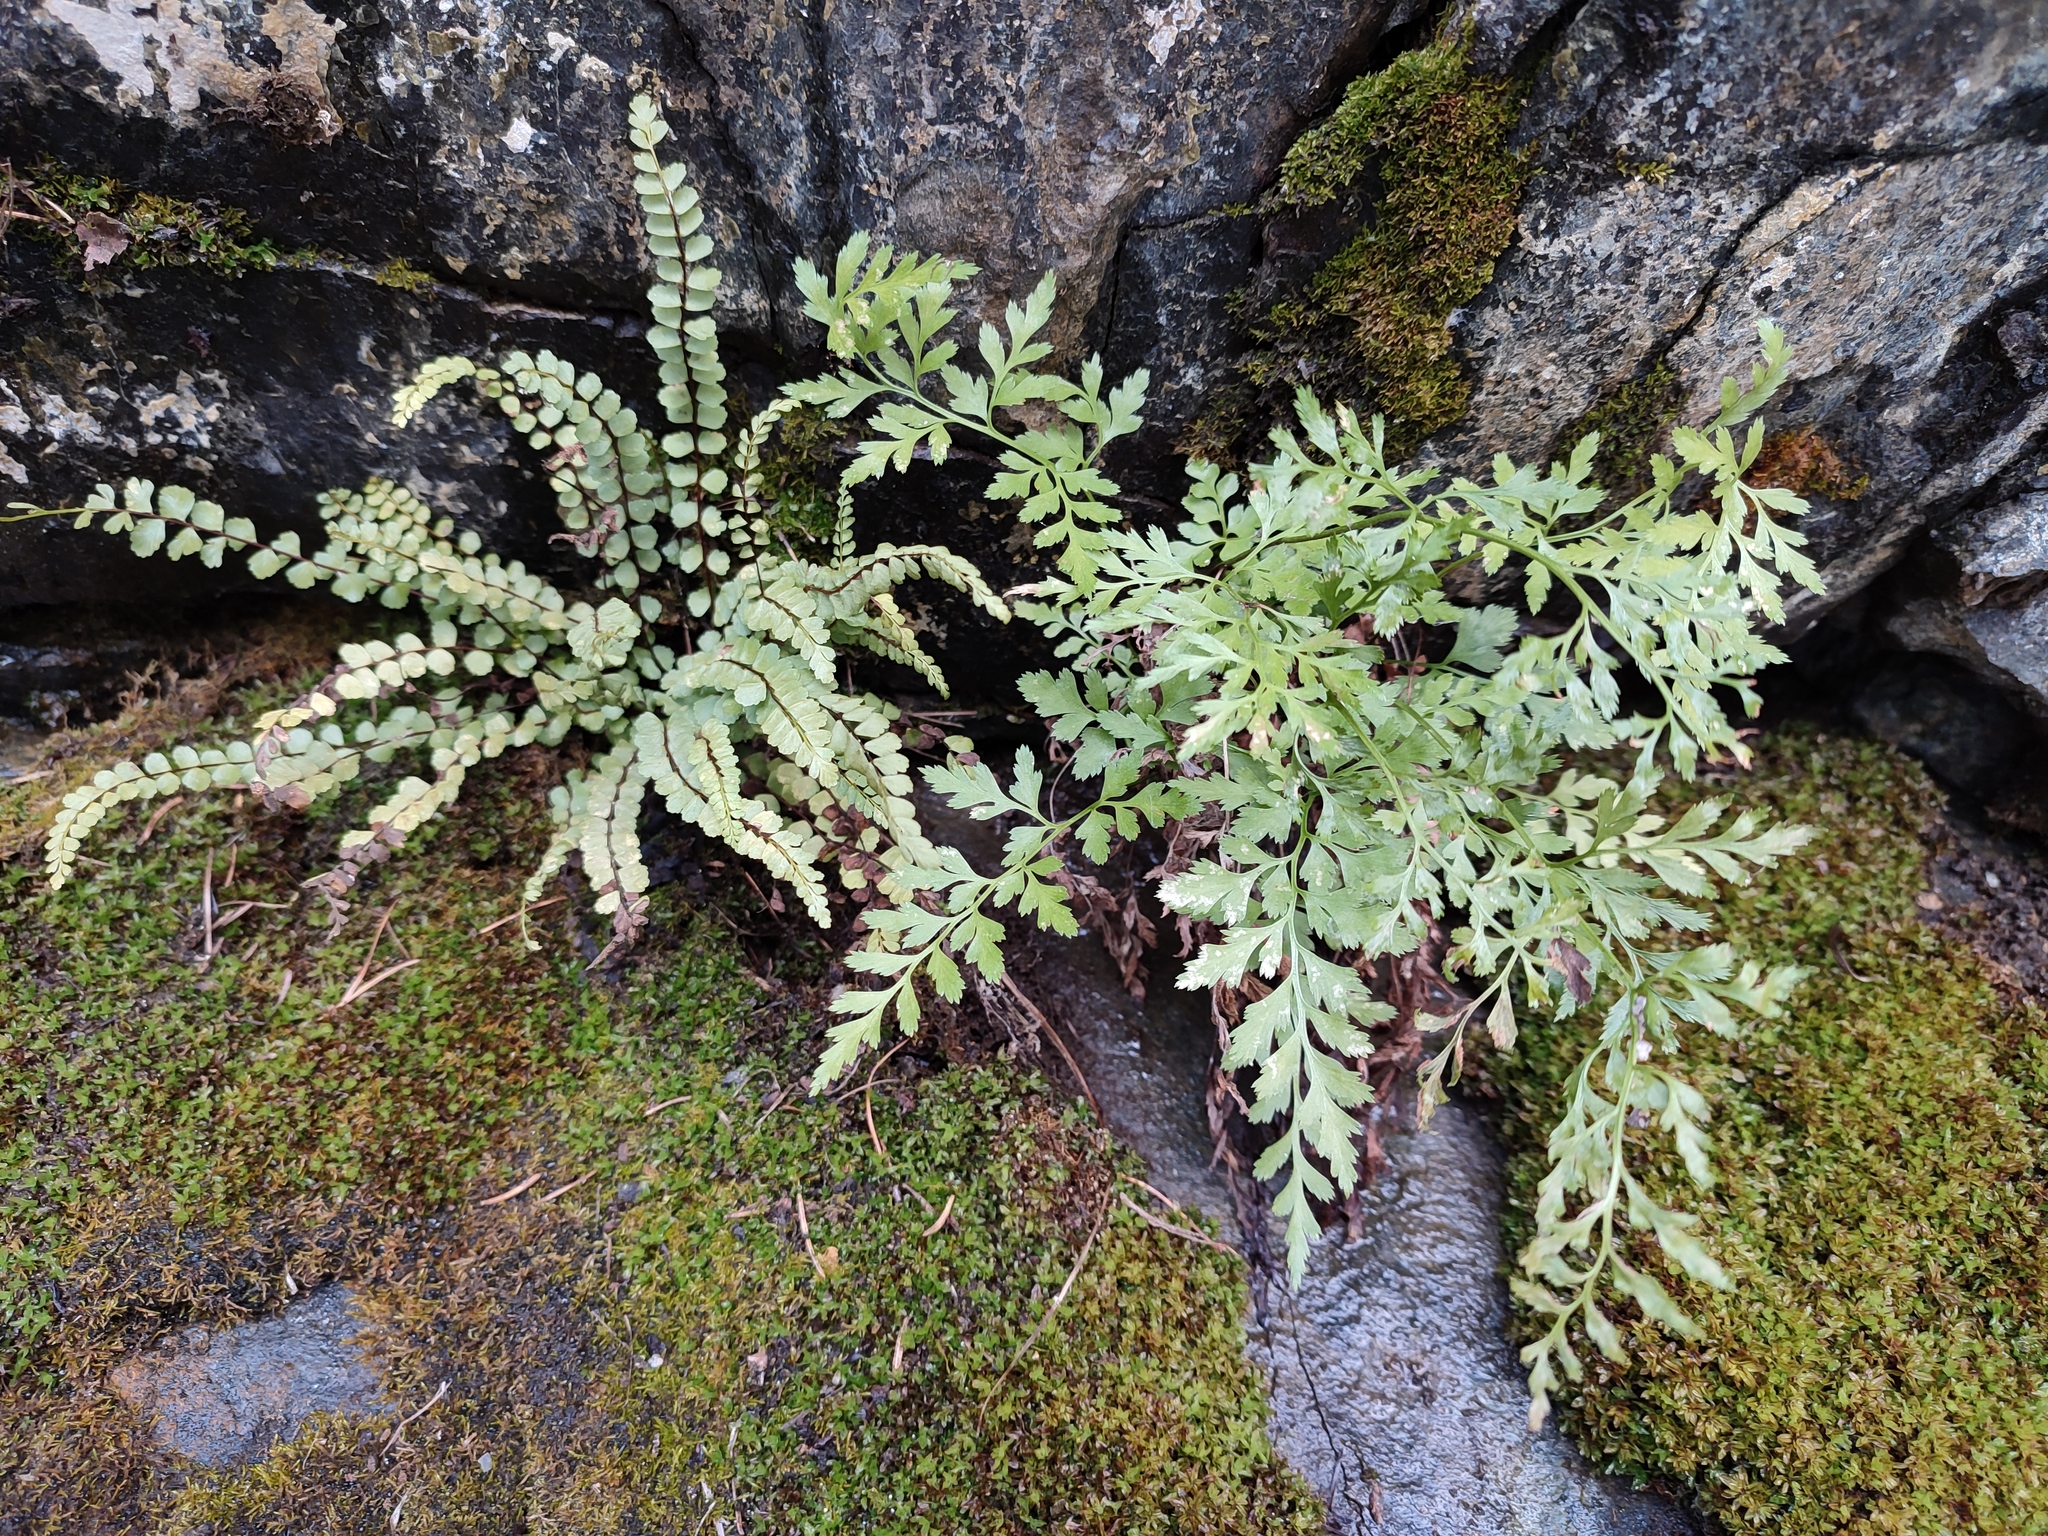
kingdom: Plantae
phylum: Tracheophyta
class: Polypodiopsida
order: Polypodiales
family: Aspleniaceae
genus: Asplenium
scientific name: Asplenium adulterinum
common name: Adulterated spleenwort
